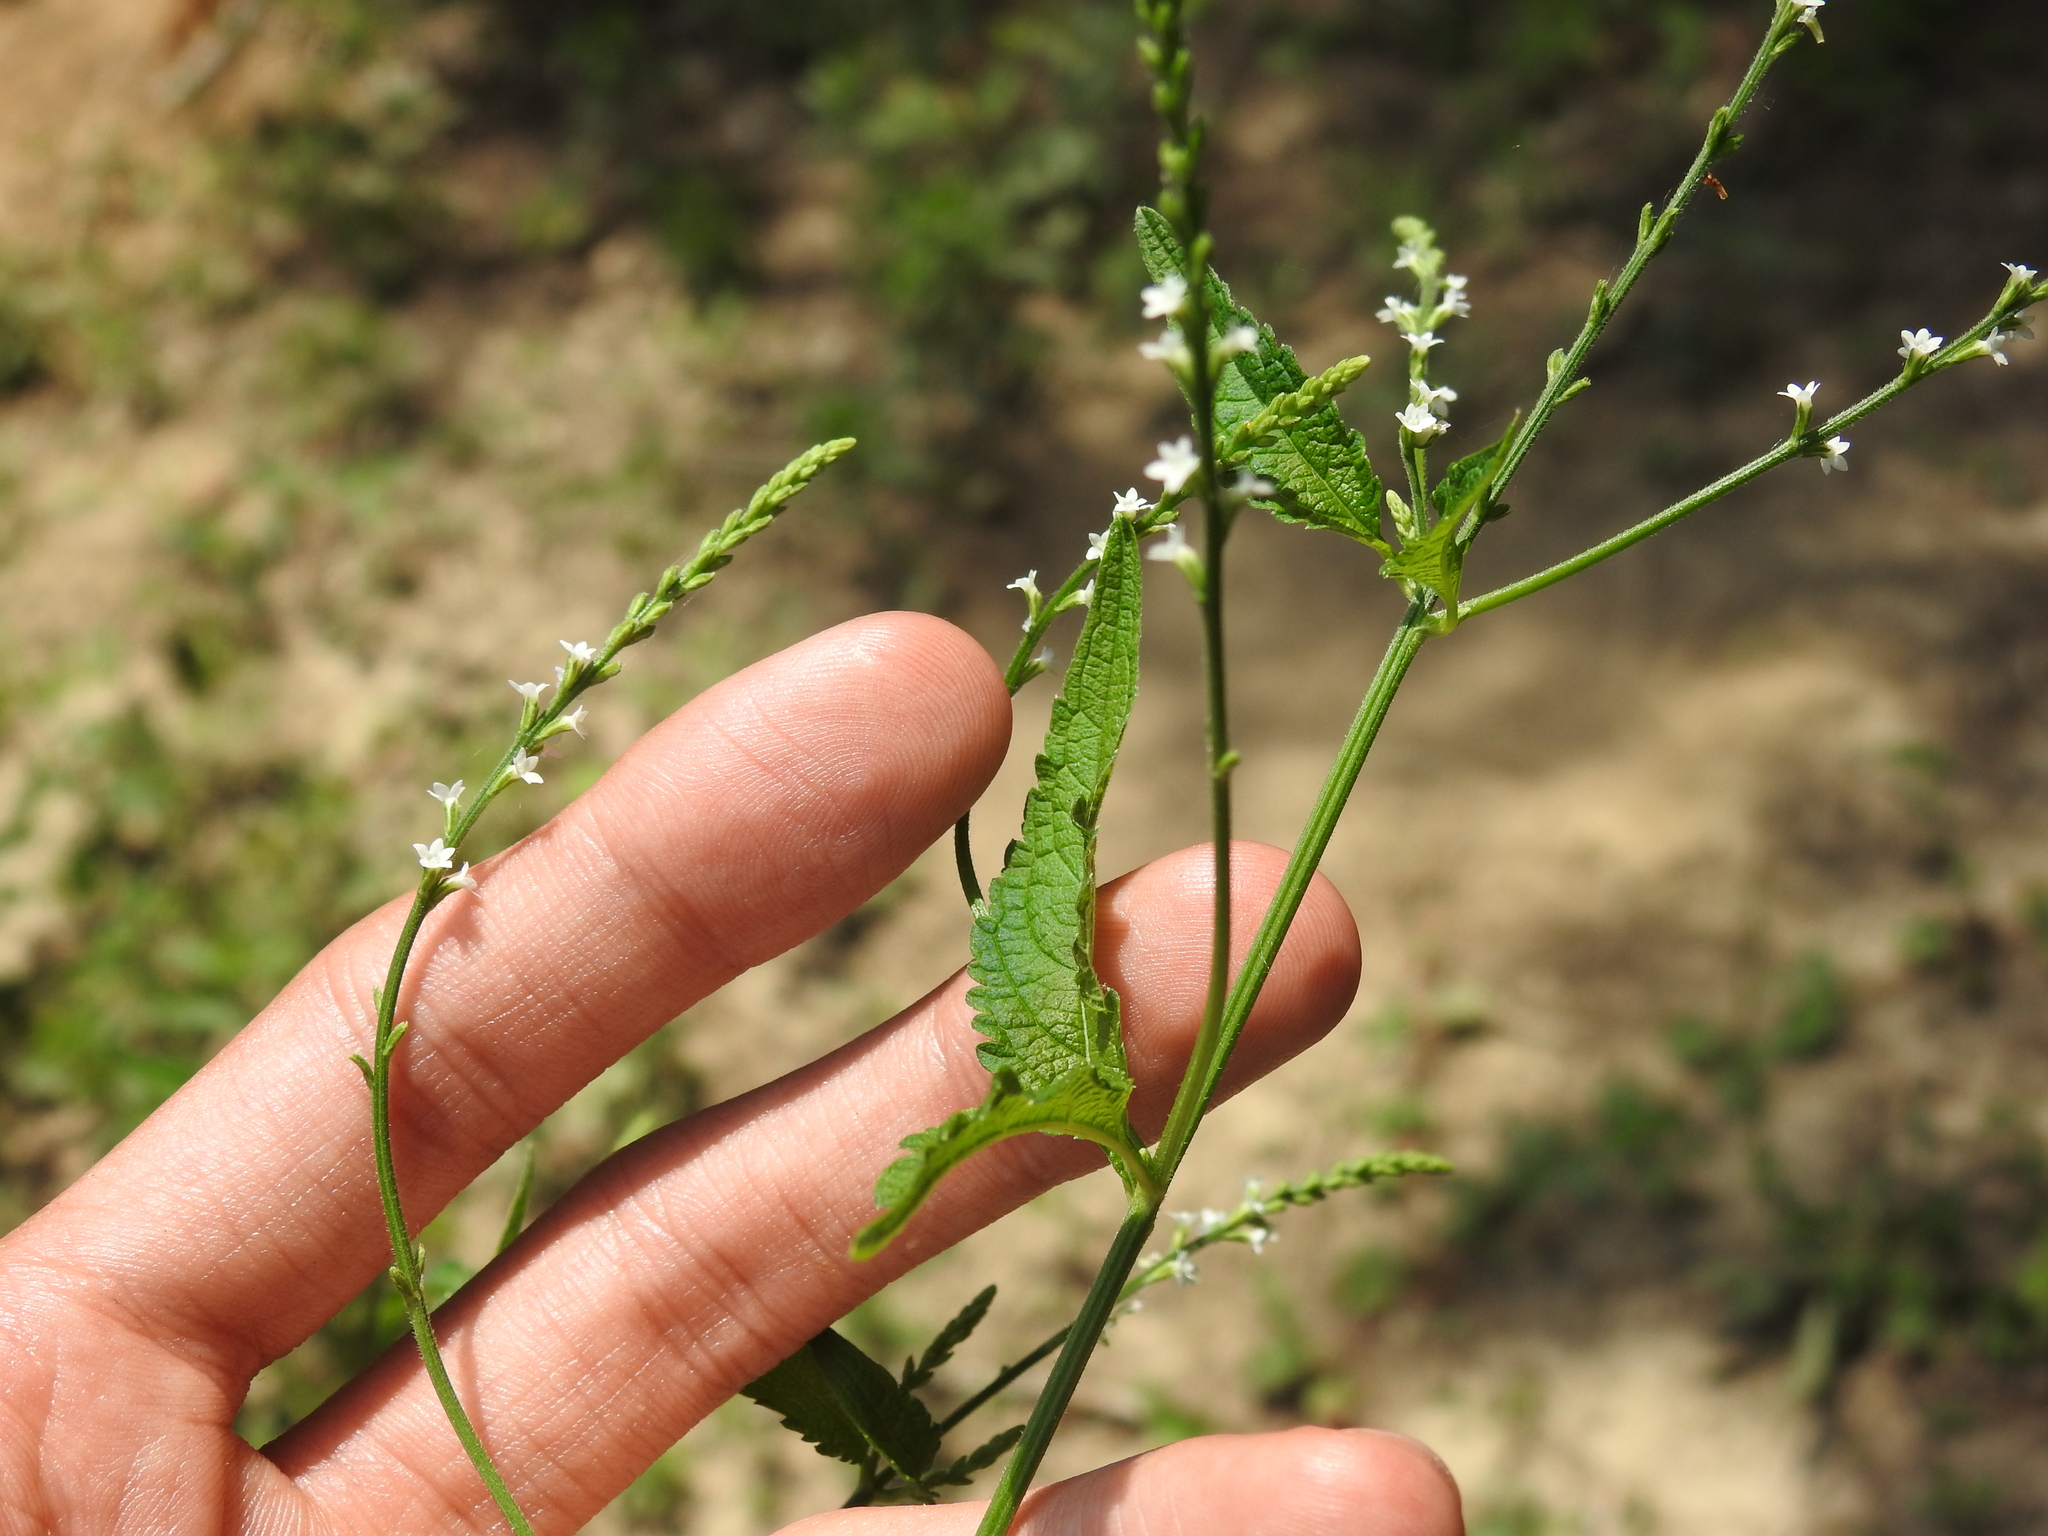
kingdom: Plantae
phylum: Tracheophyta
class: Magnoliopsida
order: Lamiales
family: Verbenaceae
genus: Verbena
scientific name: Verbena urticifolia
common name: Nettle-leaved vervain
